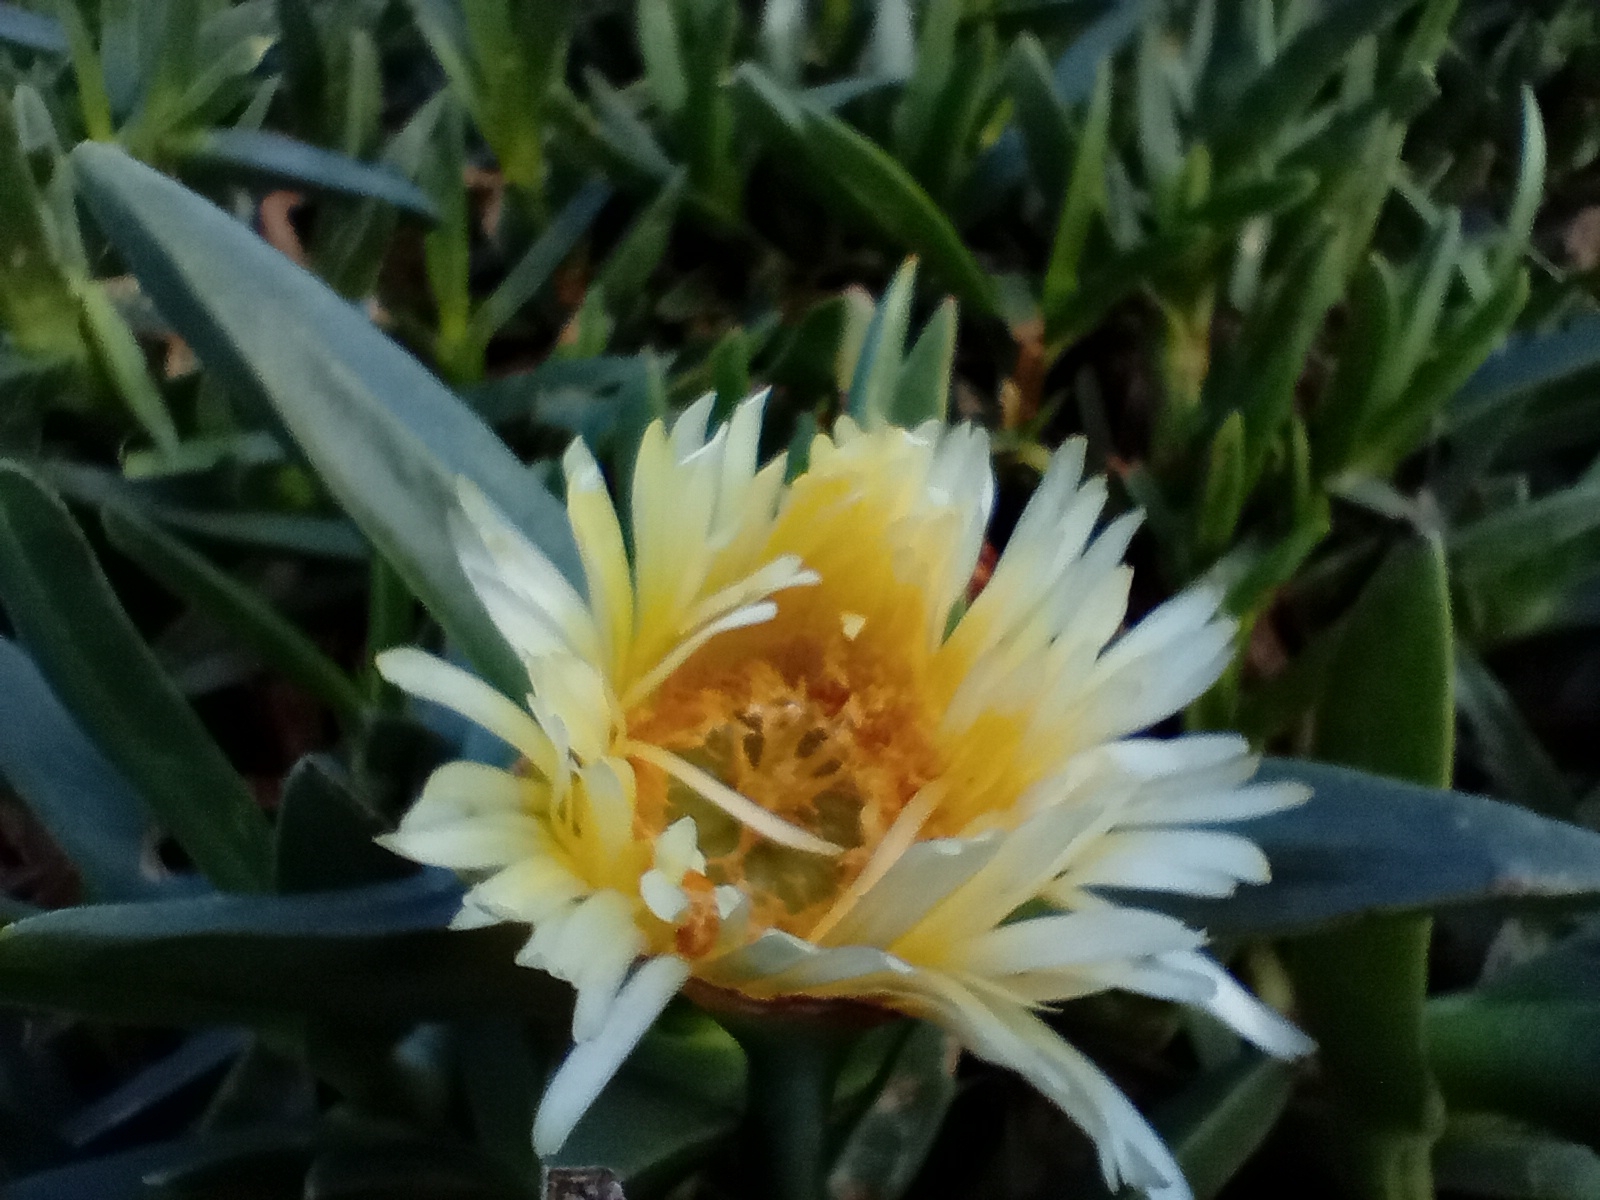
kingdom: Plantae
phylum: Tracheophyta
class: Magnoliopsida
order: Caryophyllales
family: Aizoaceae
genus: Carpobrotus
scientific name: Carpobrotus edulis
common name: Hottentot-fig
